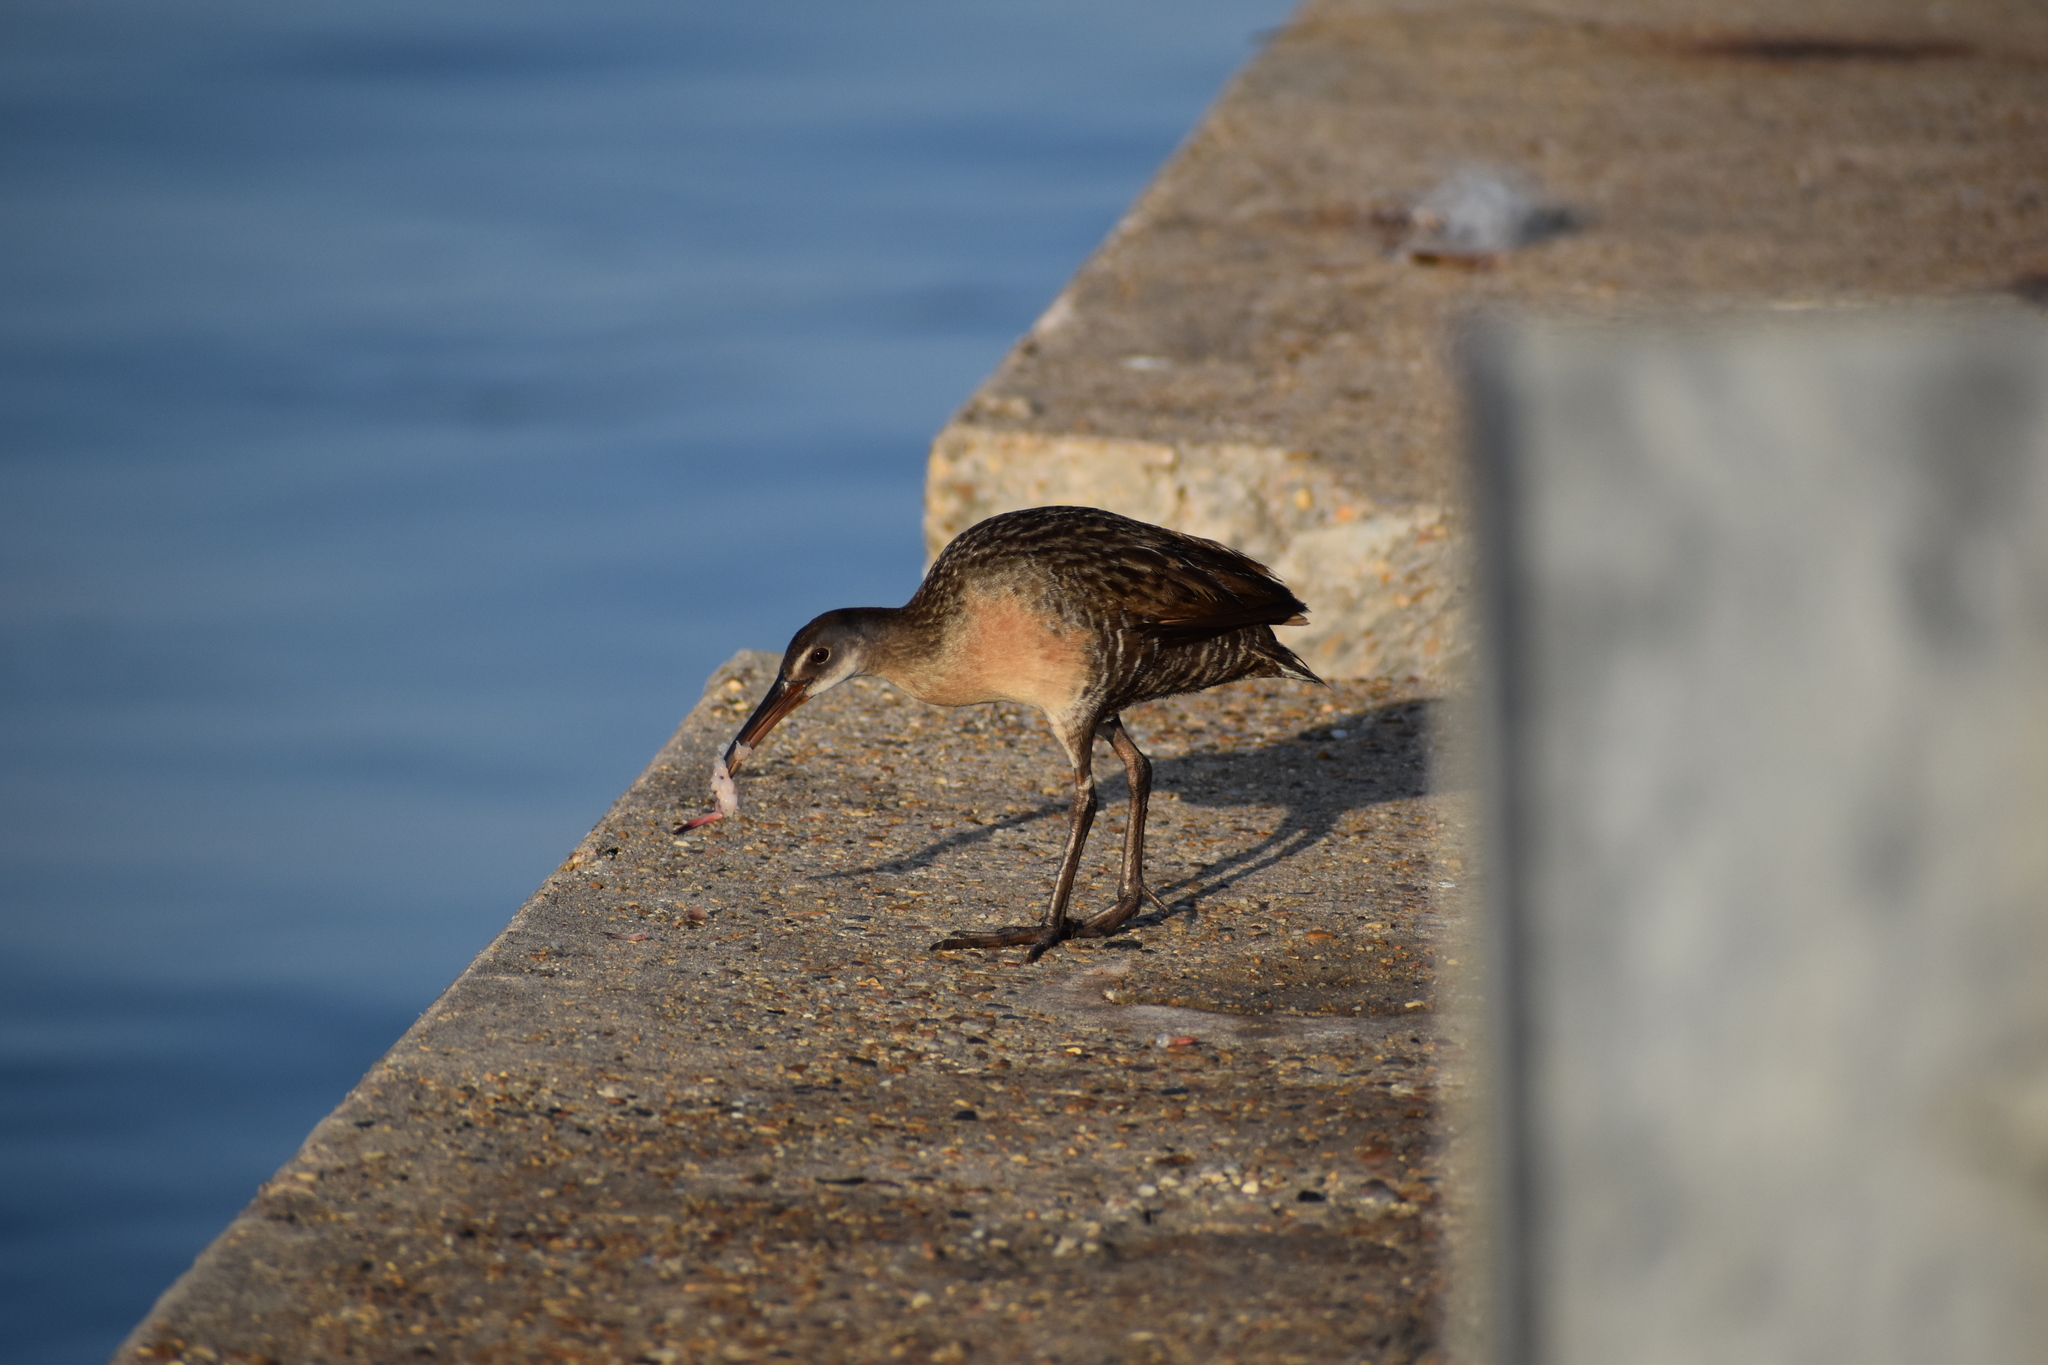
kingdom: Animalia
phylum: Chordata
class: Aves
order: Gruiformes
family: Rallidae
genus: Rallus
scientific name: Rallus crepitans
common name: Clapper rail
